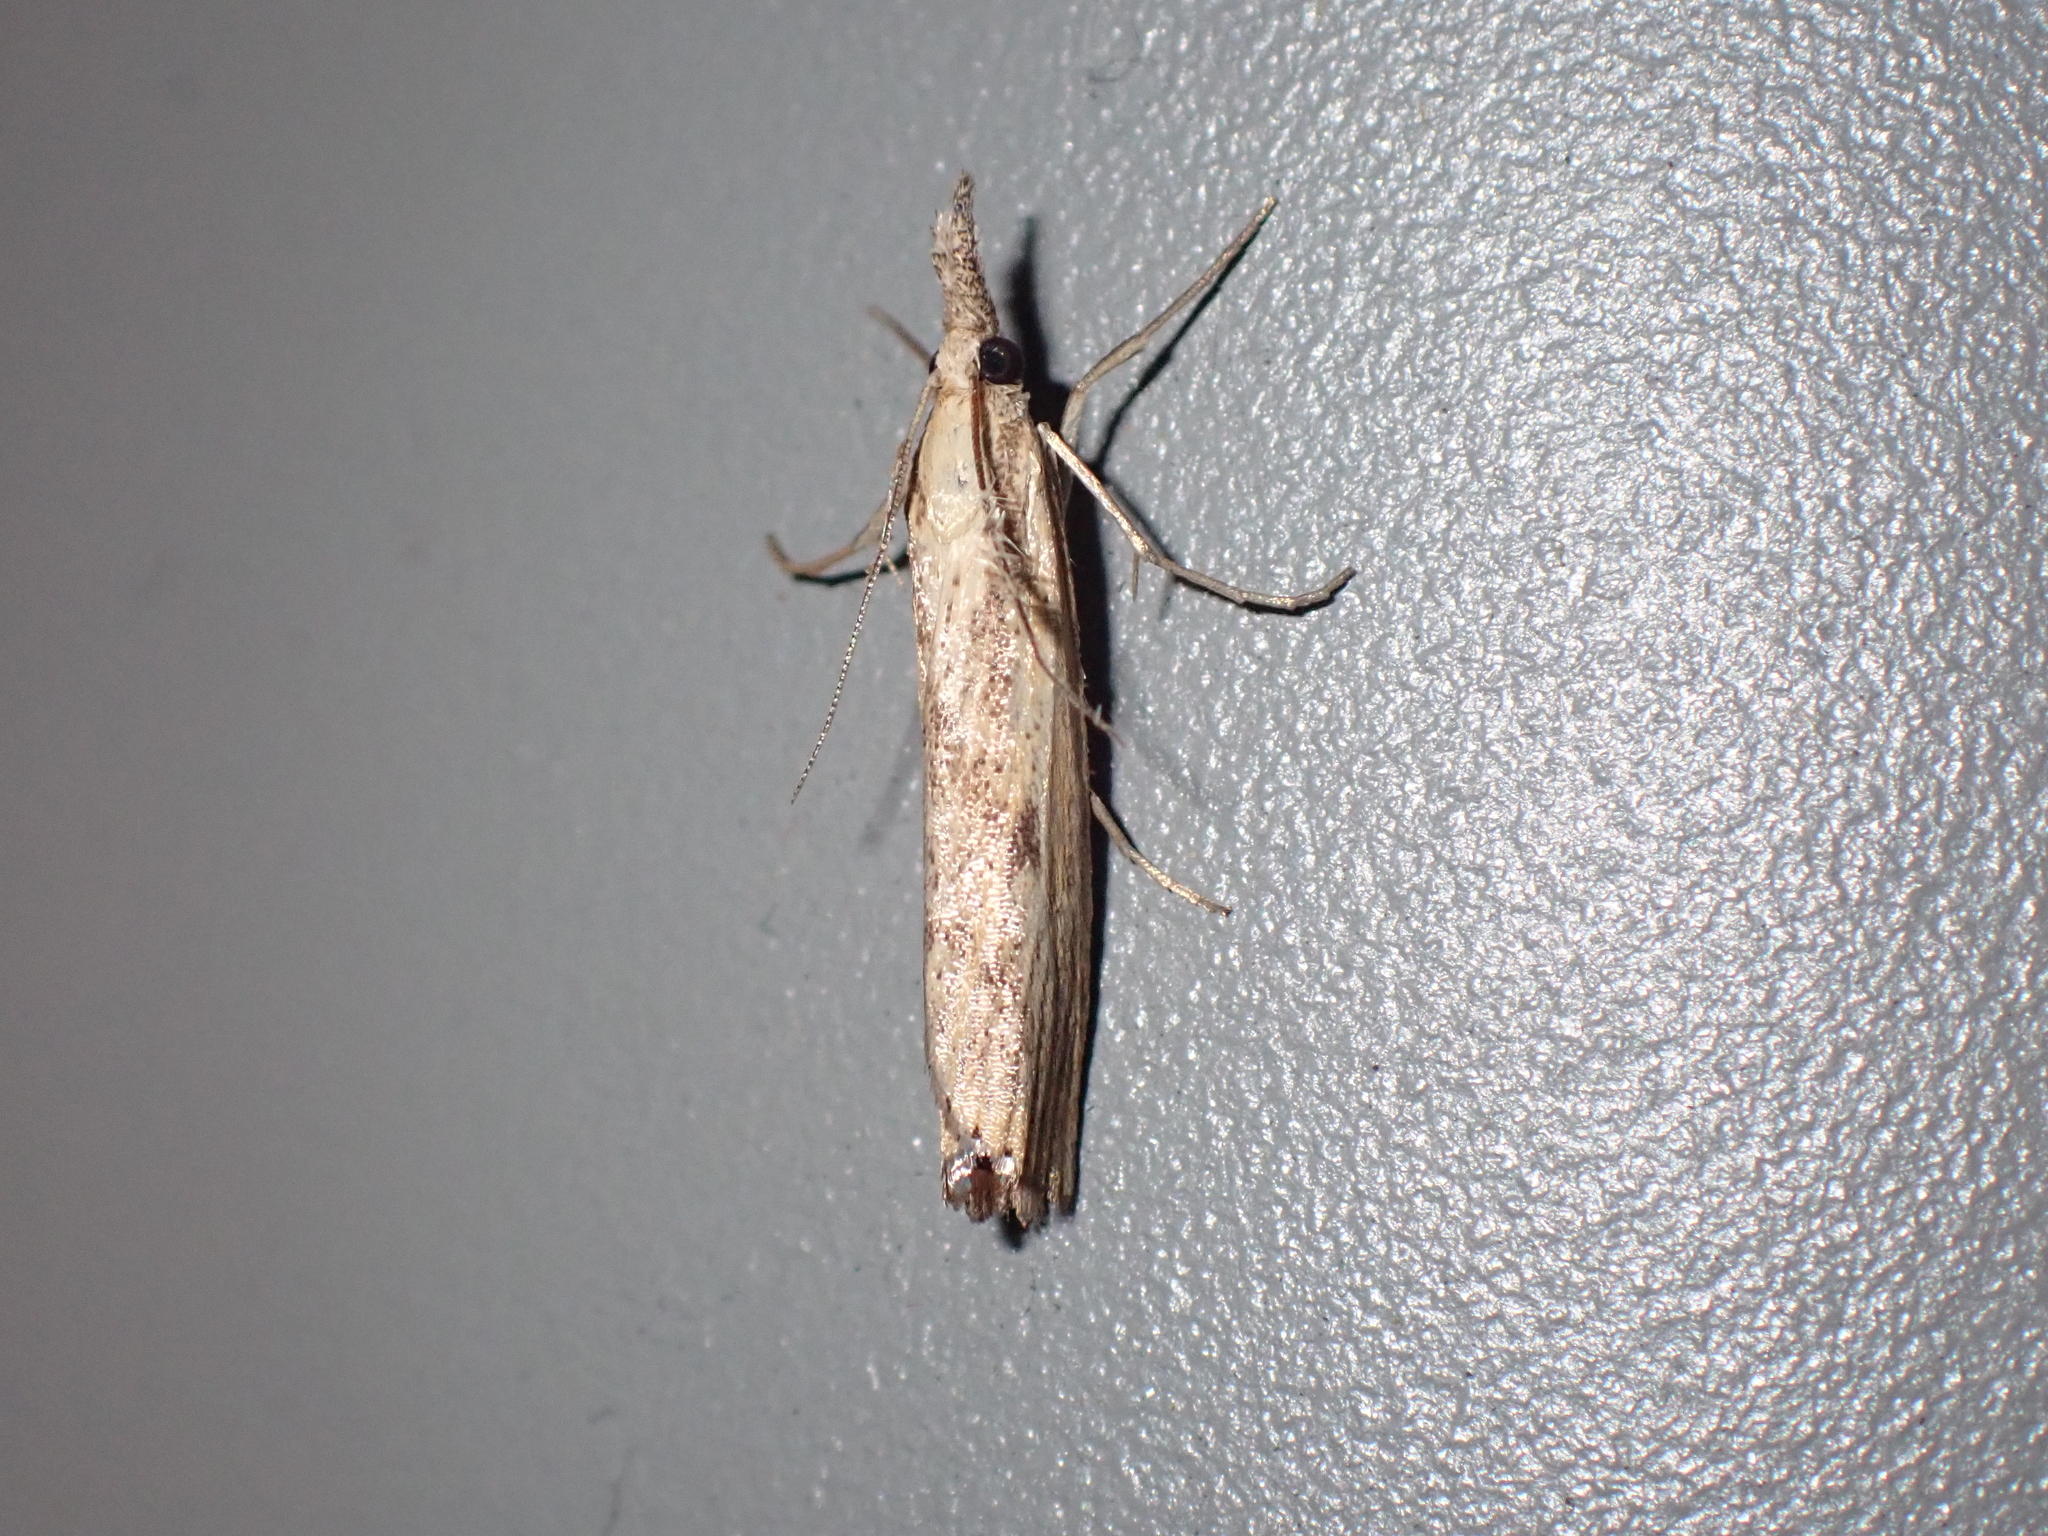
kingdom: Animalia
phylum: Arthropoda
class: Insecta
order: Lepidoptera
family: Crambidae
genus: Agriphila
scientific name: Agriphila inquinatella
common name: Barred grass-veneer
